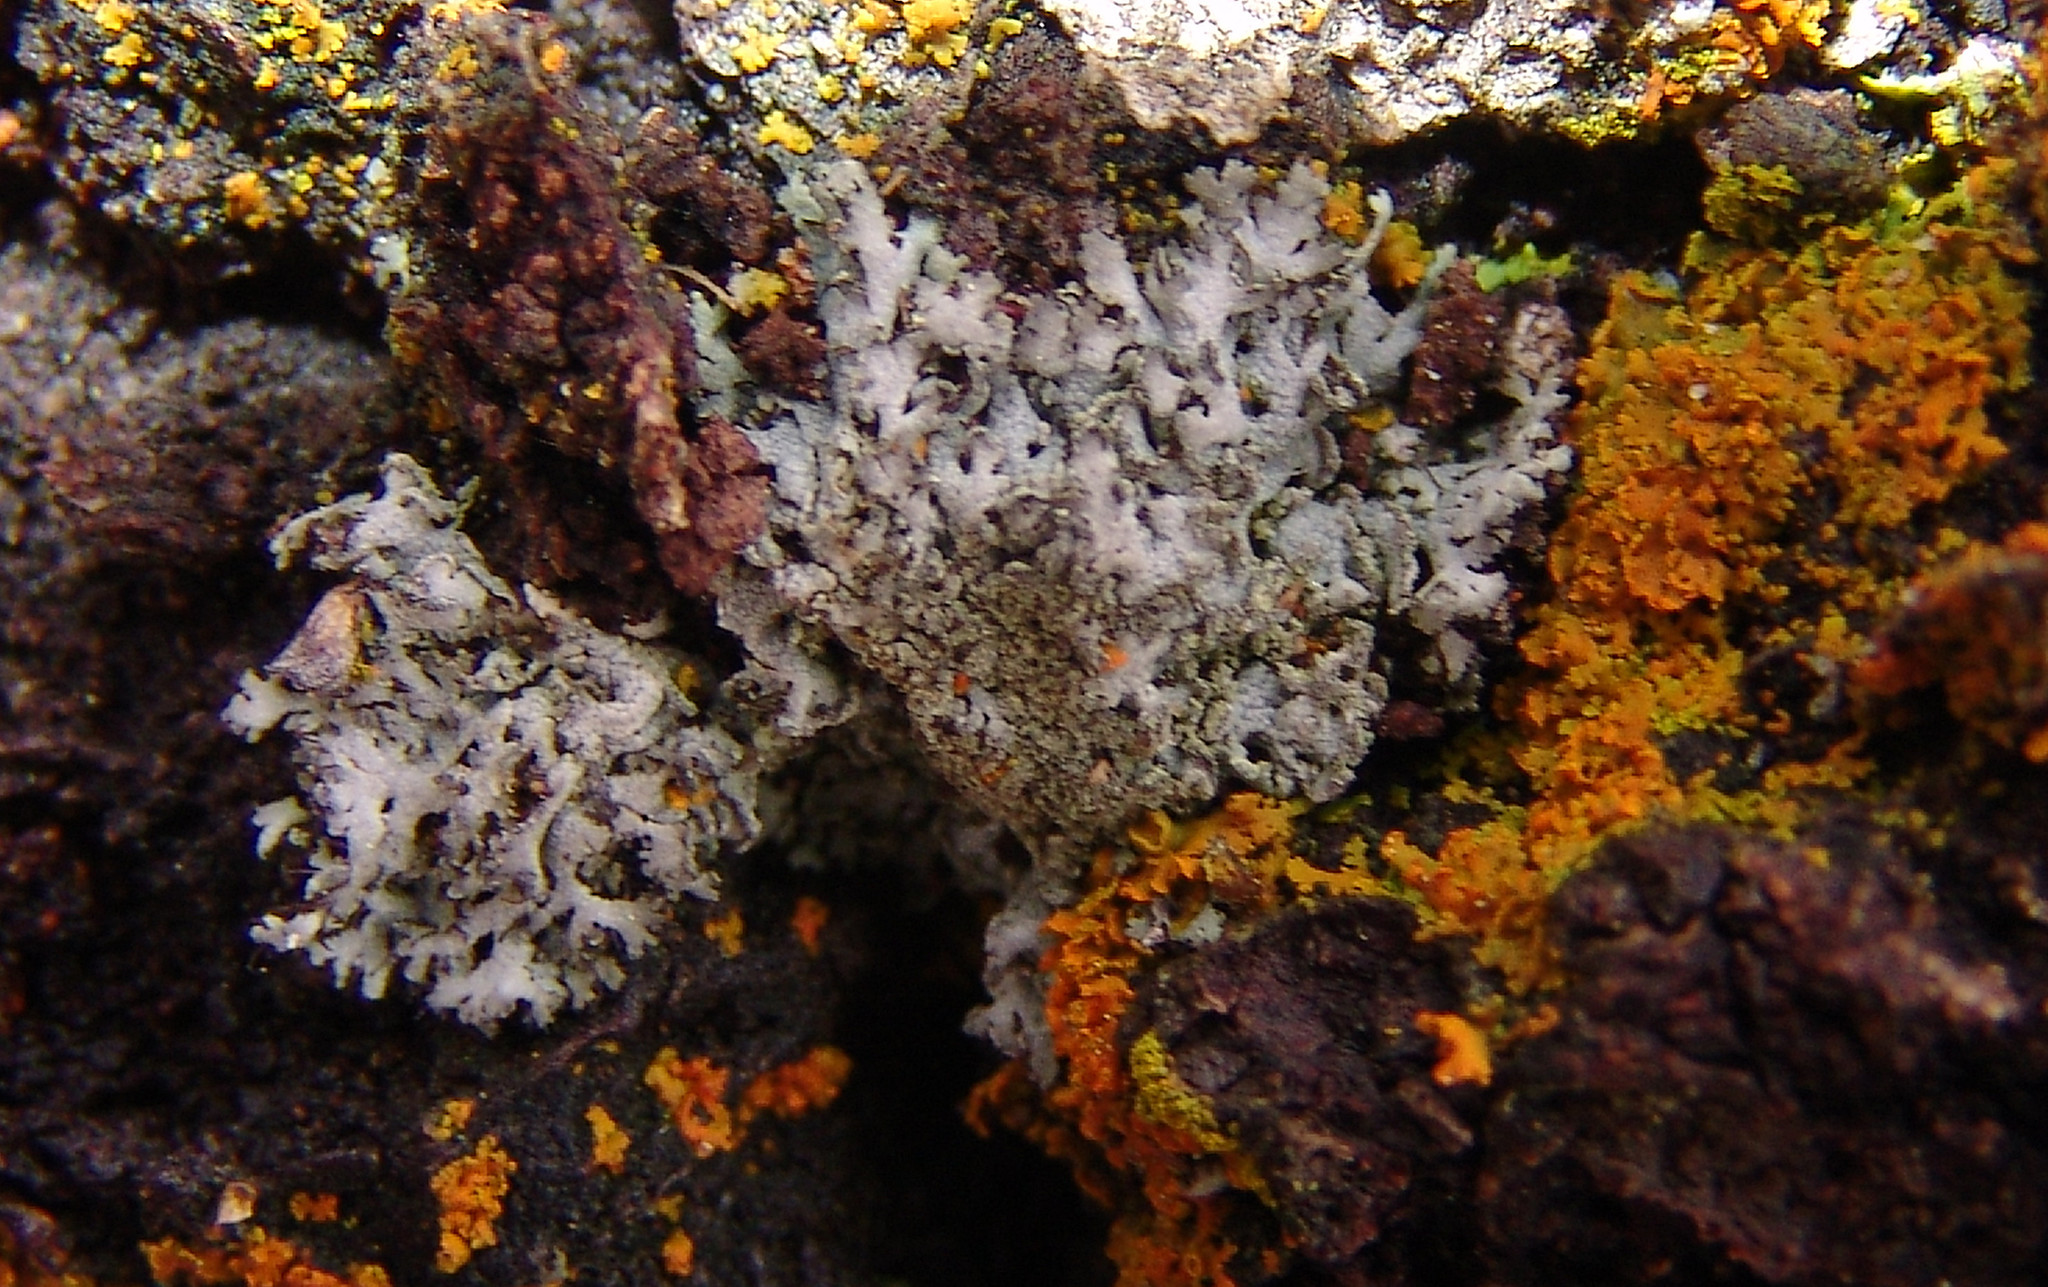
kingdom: Fungi
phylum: Ascomycota
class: Lecanoromycetes
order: Caliciales
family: Physciaceae
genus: Phaeophyscia
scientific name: Phaeophyscia hirsuta
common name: Hairy shadow lichen
